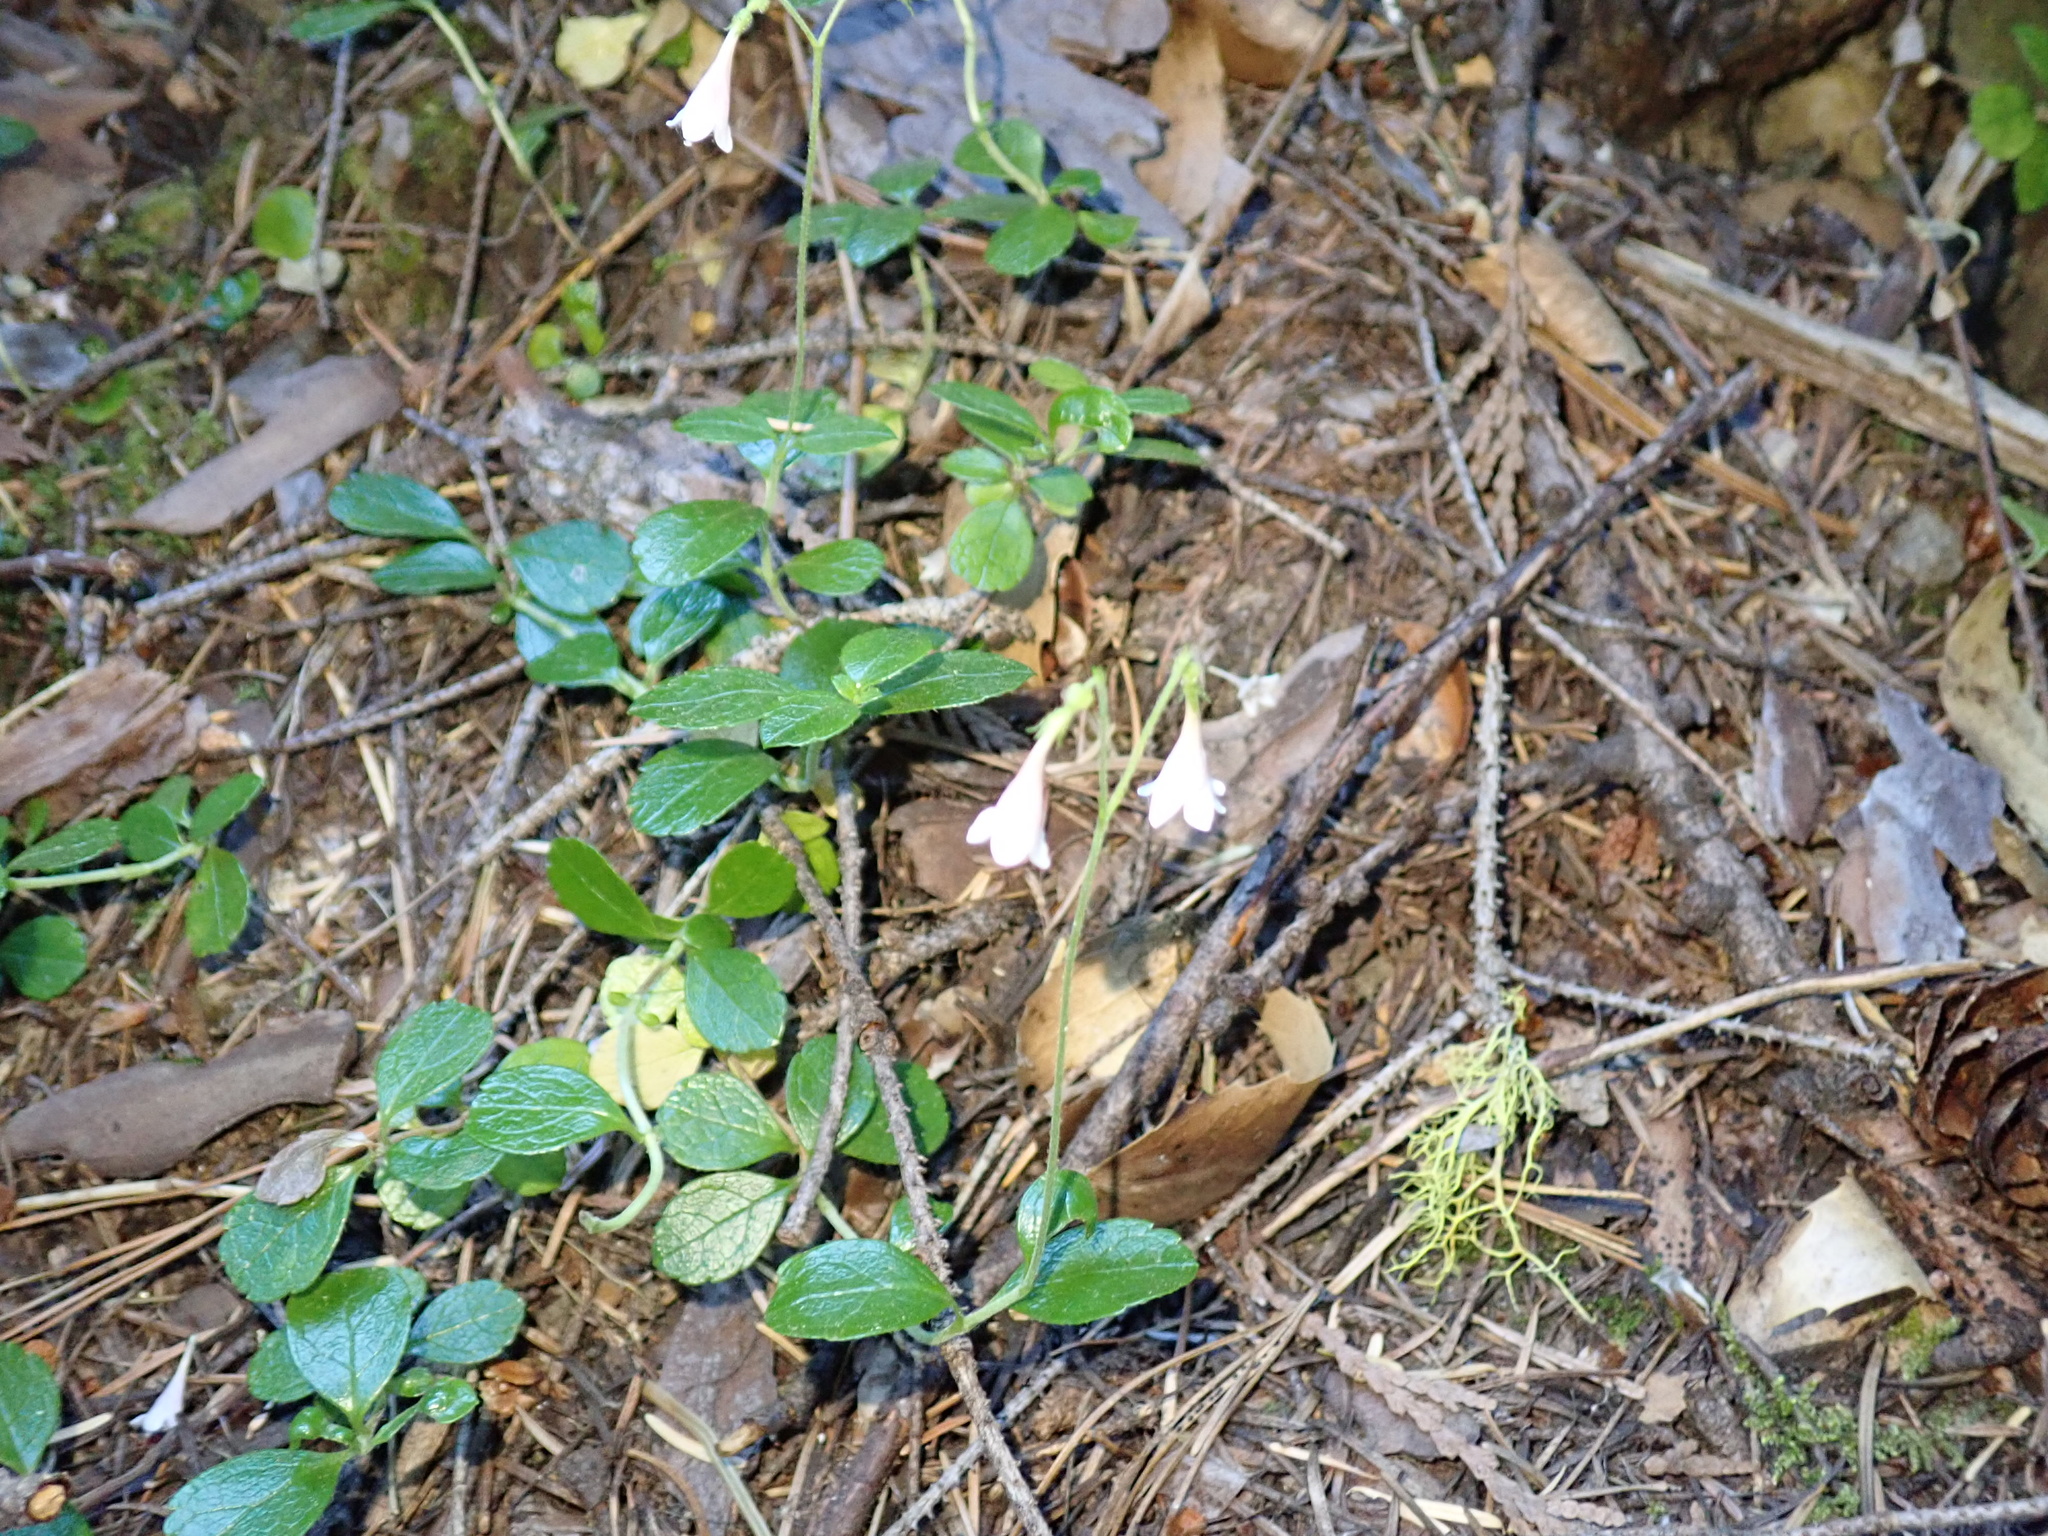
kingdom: Plantae
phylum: Tracheophyta
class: Magnoliopsida
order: Dipsacales
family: Caprifoliaceae
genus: Linnaea
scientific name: Linnaea borealis
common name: Twinflower
